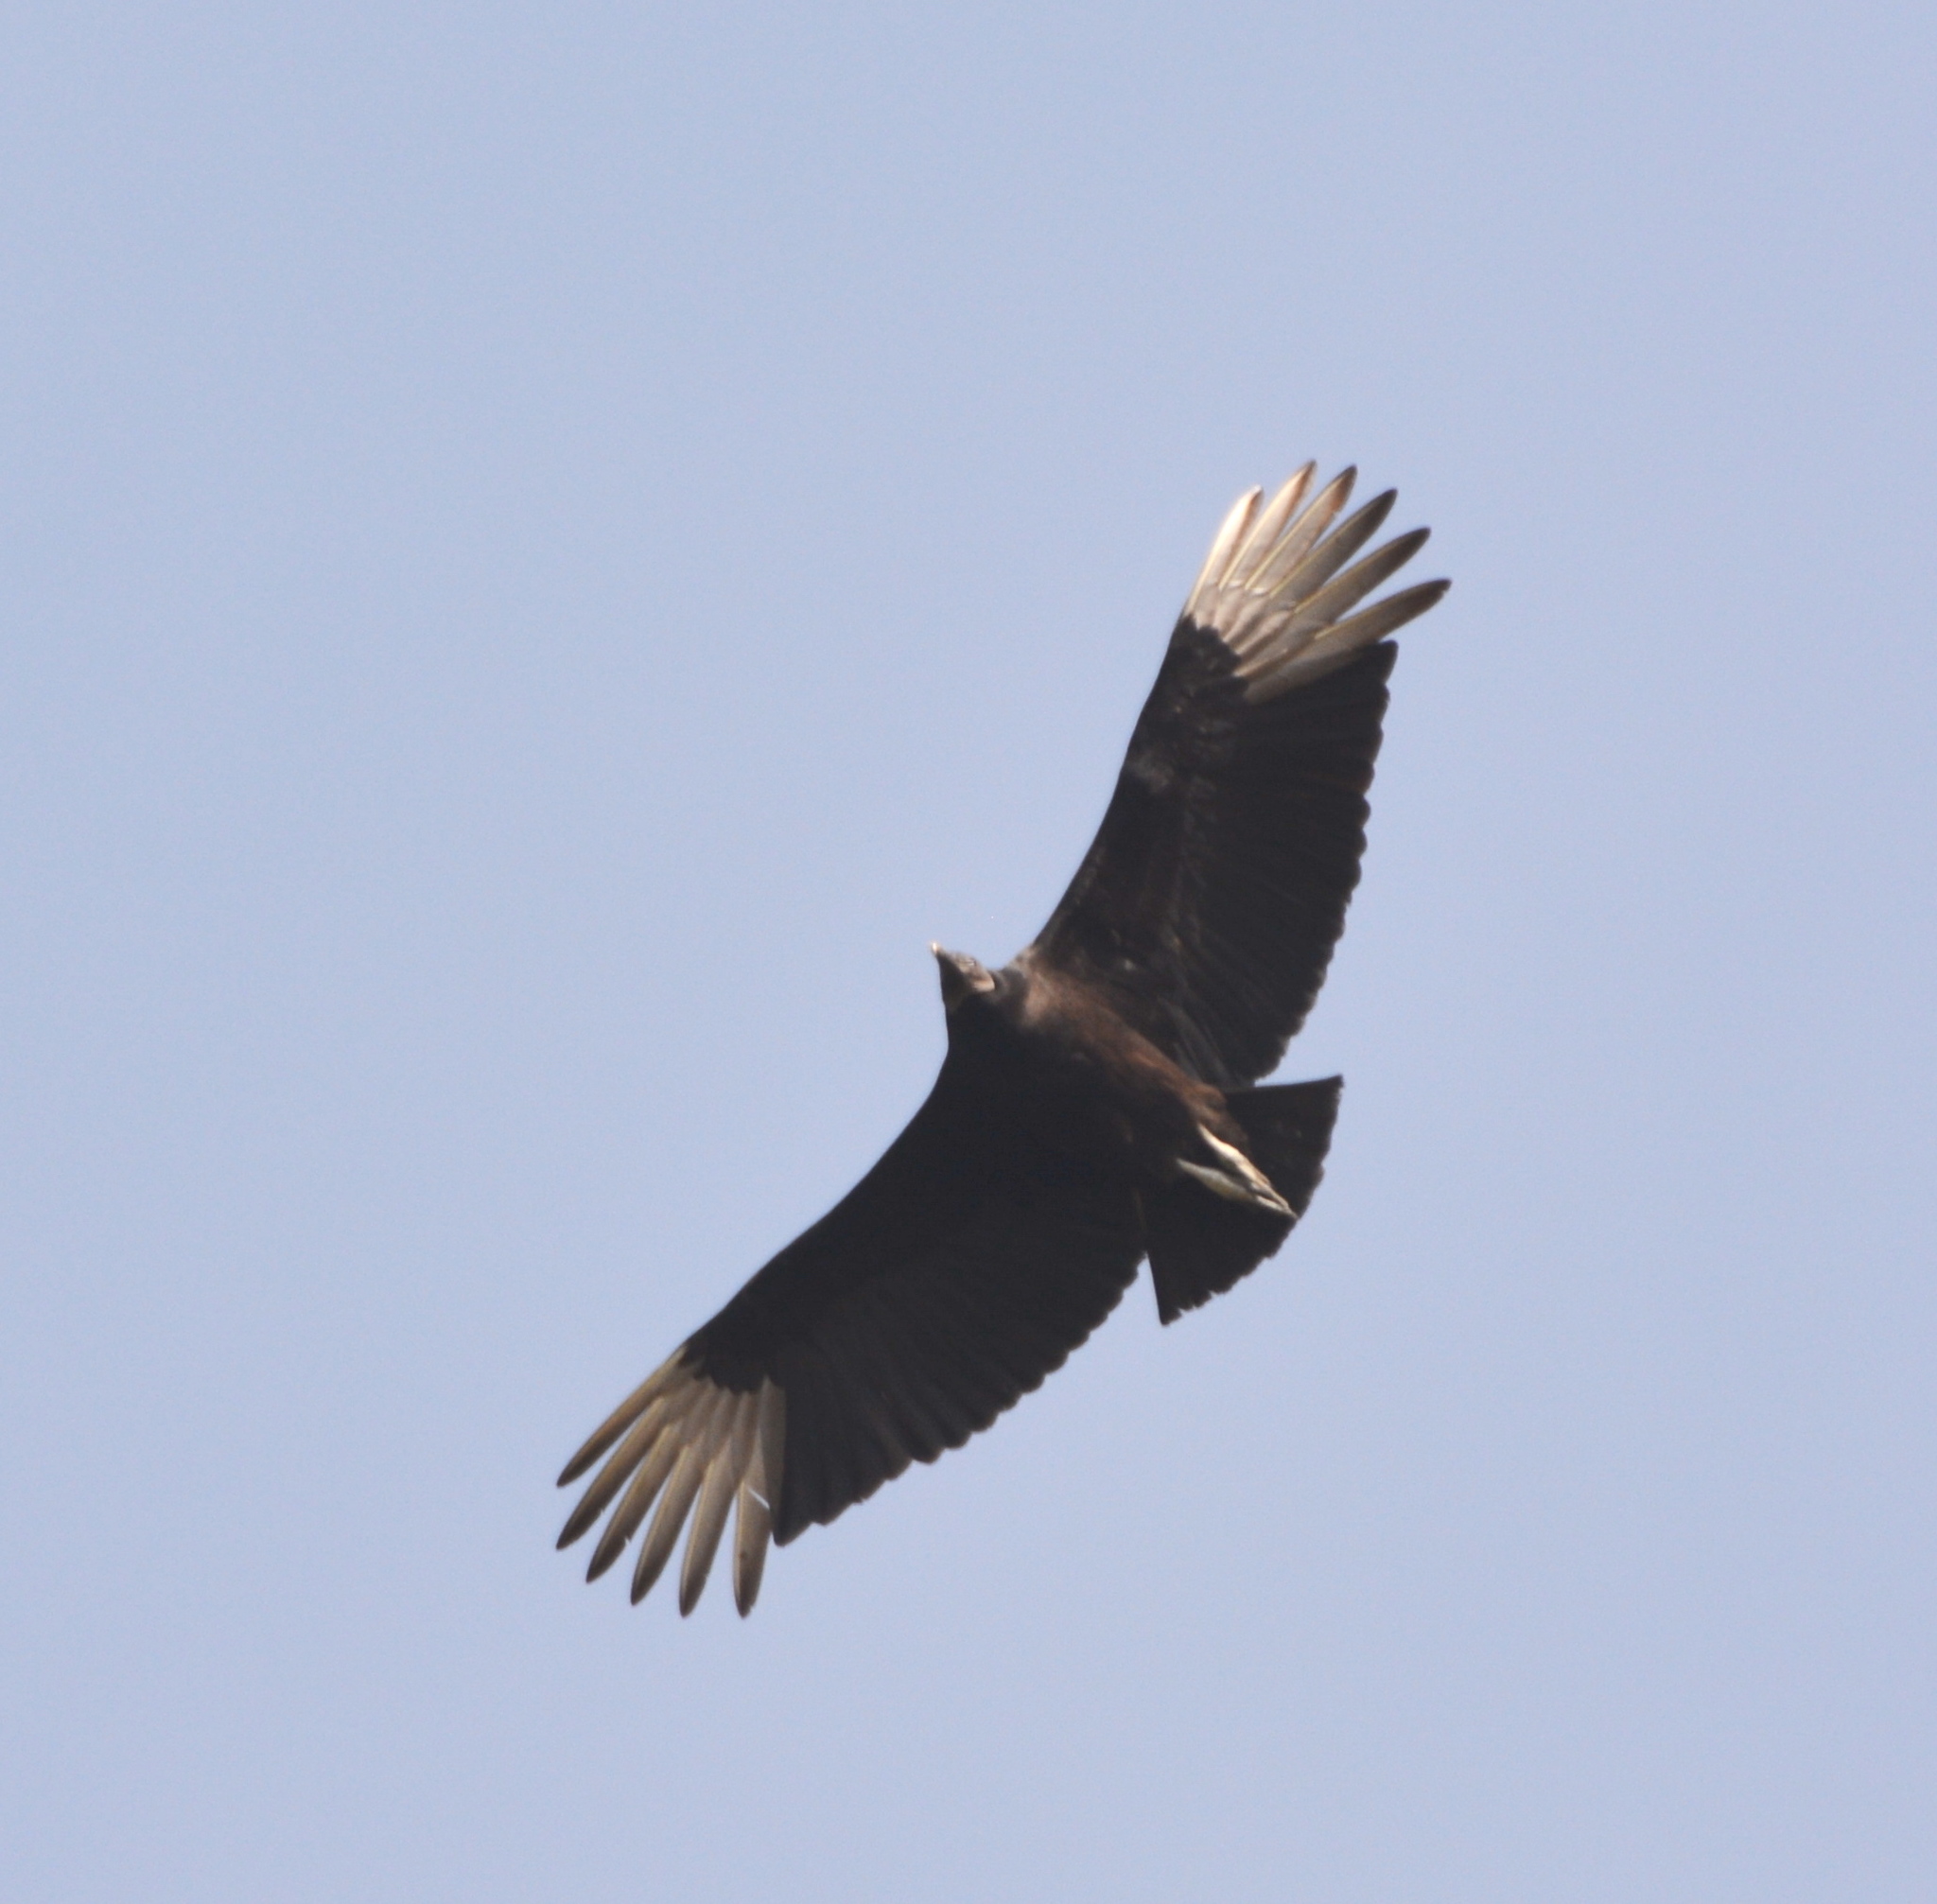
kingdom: Animalia
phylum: Chordata
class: Aves
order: Accipitriformes
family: Cathartidae
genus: Coragyps
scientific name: Coragyps atratus
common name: Black vulture
